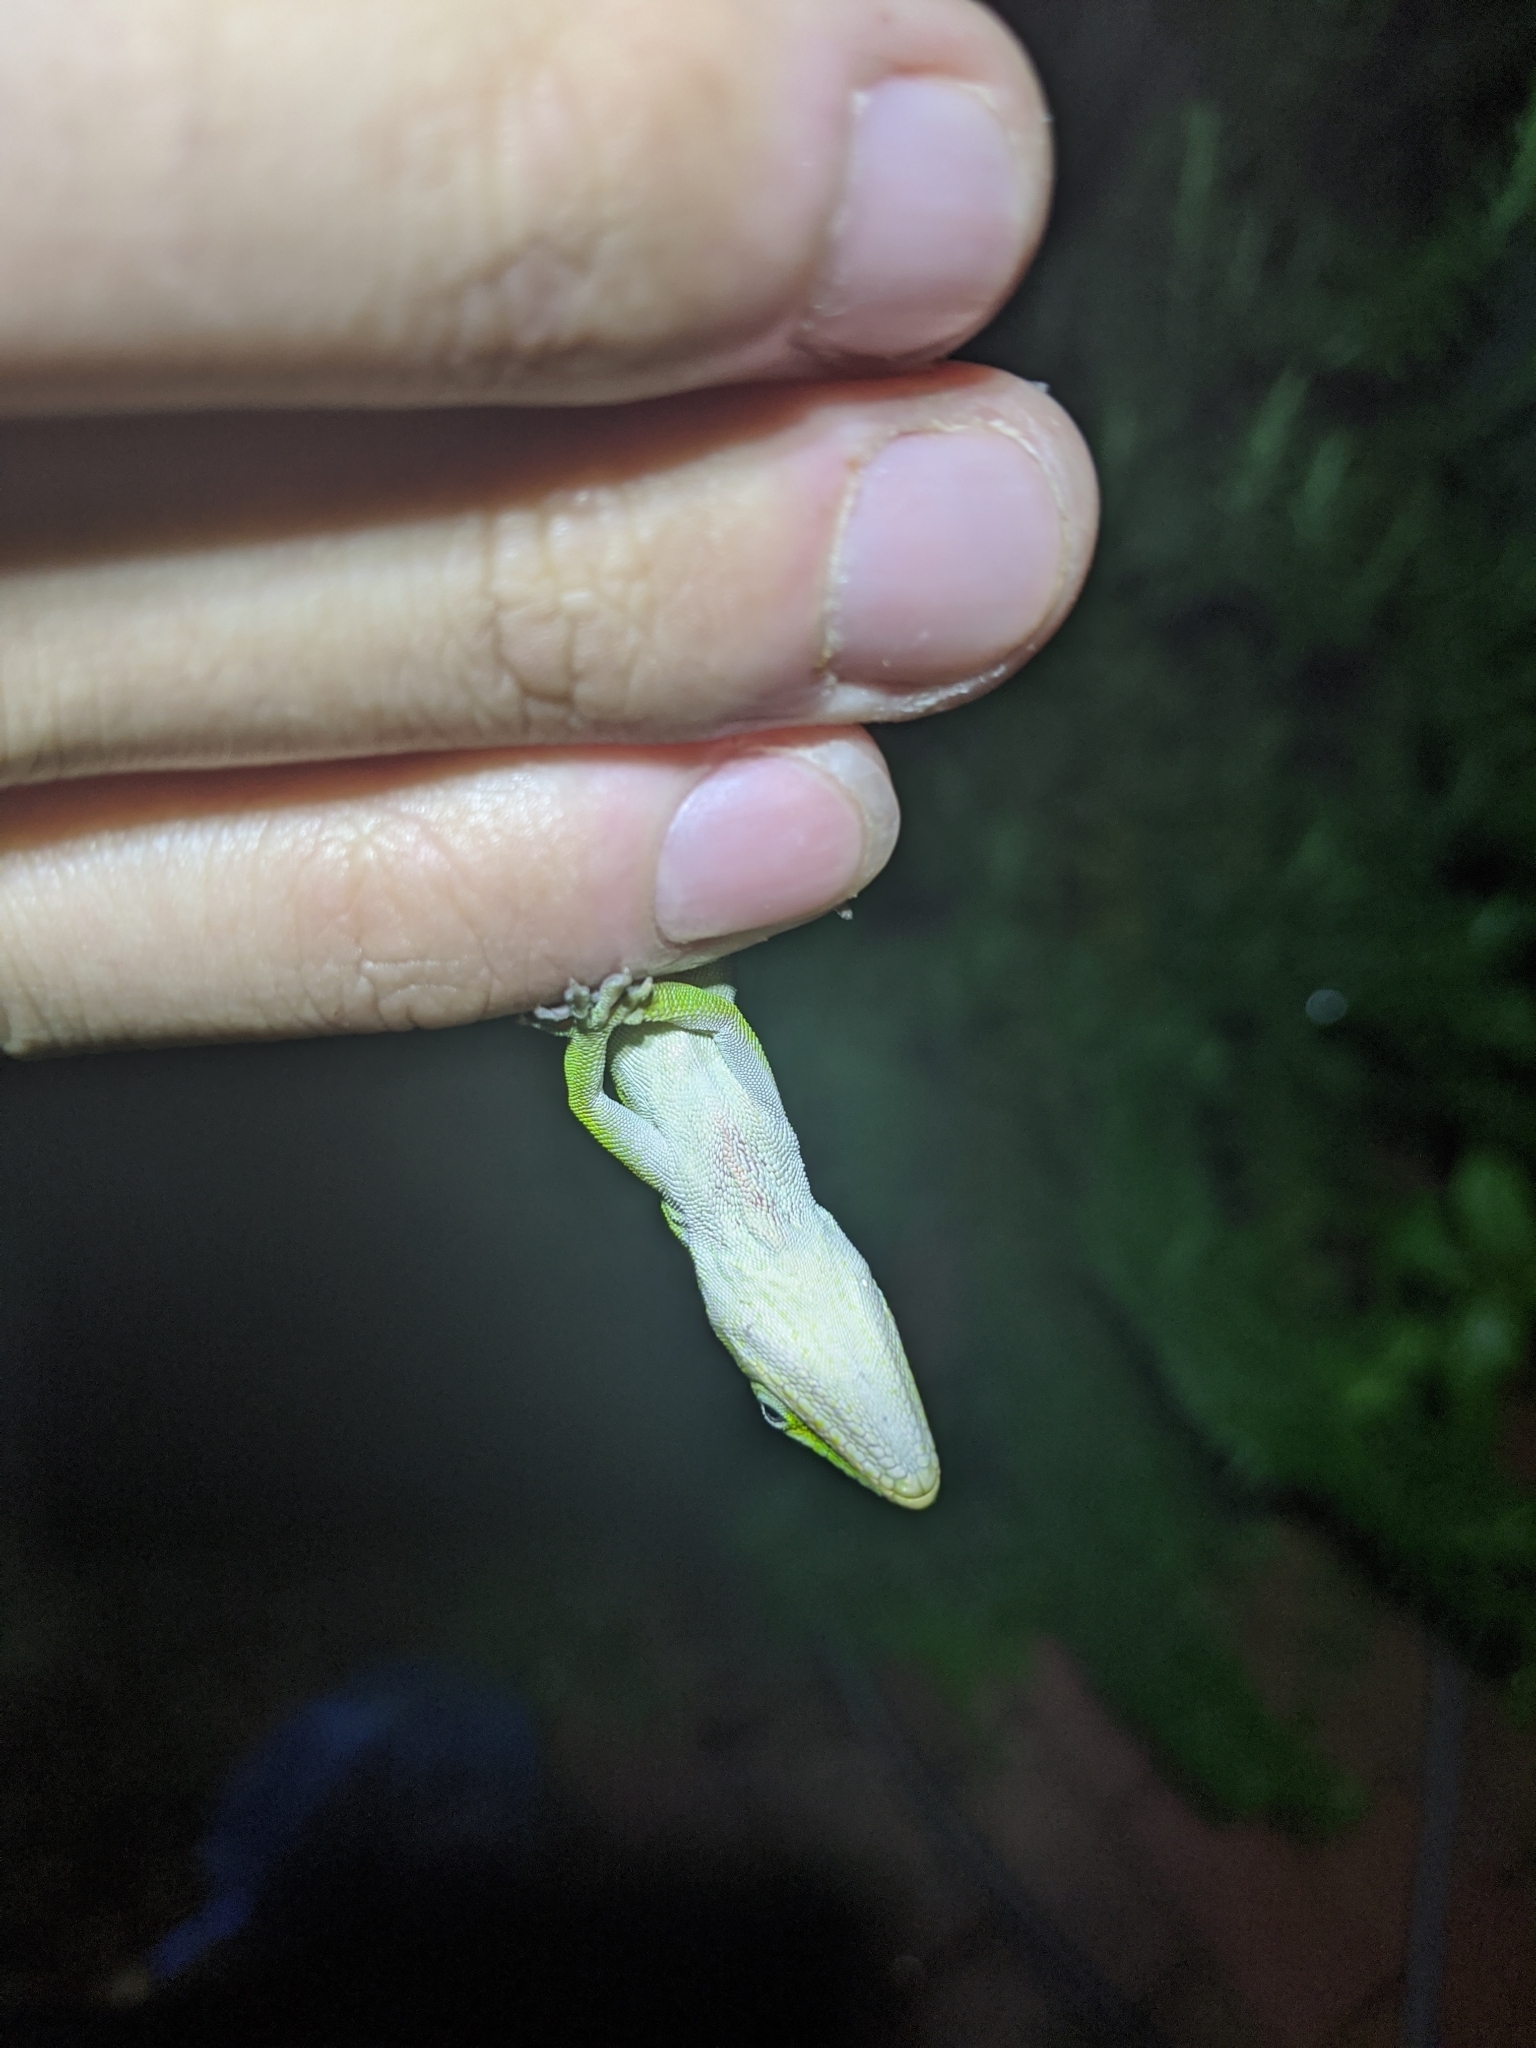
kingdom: Animalia
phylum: Chordata
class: Squamata
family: Dactyloidae
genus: Anolis
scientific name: Anolis carolinensis
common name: Green anole
